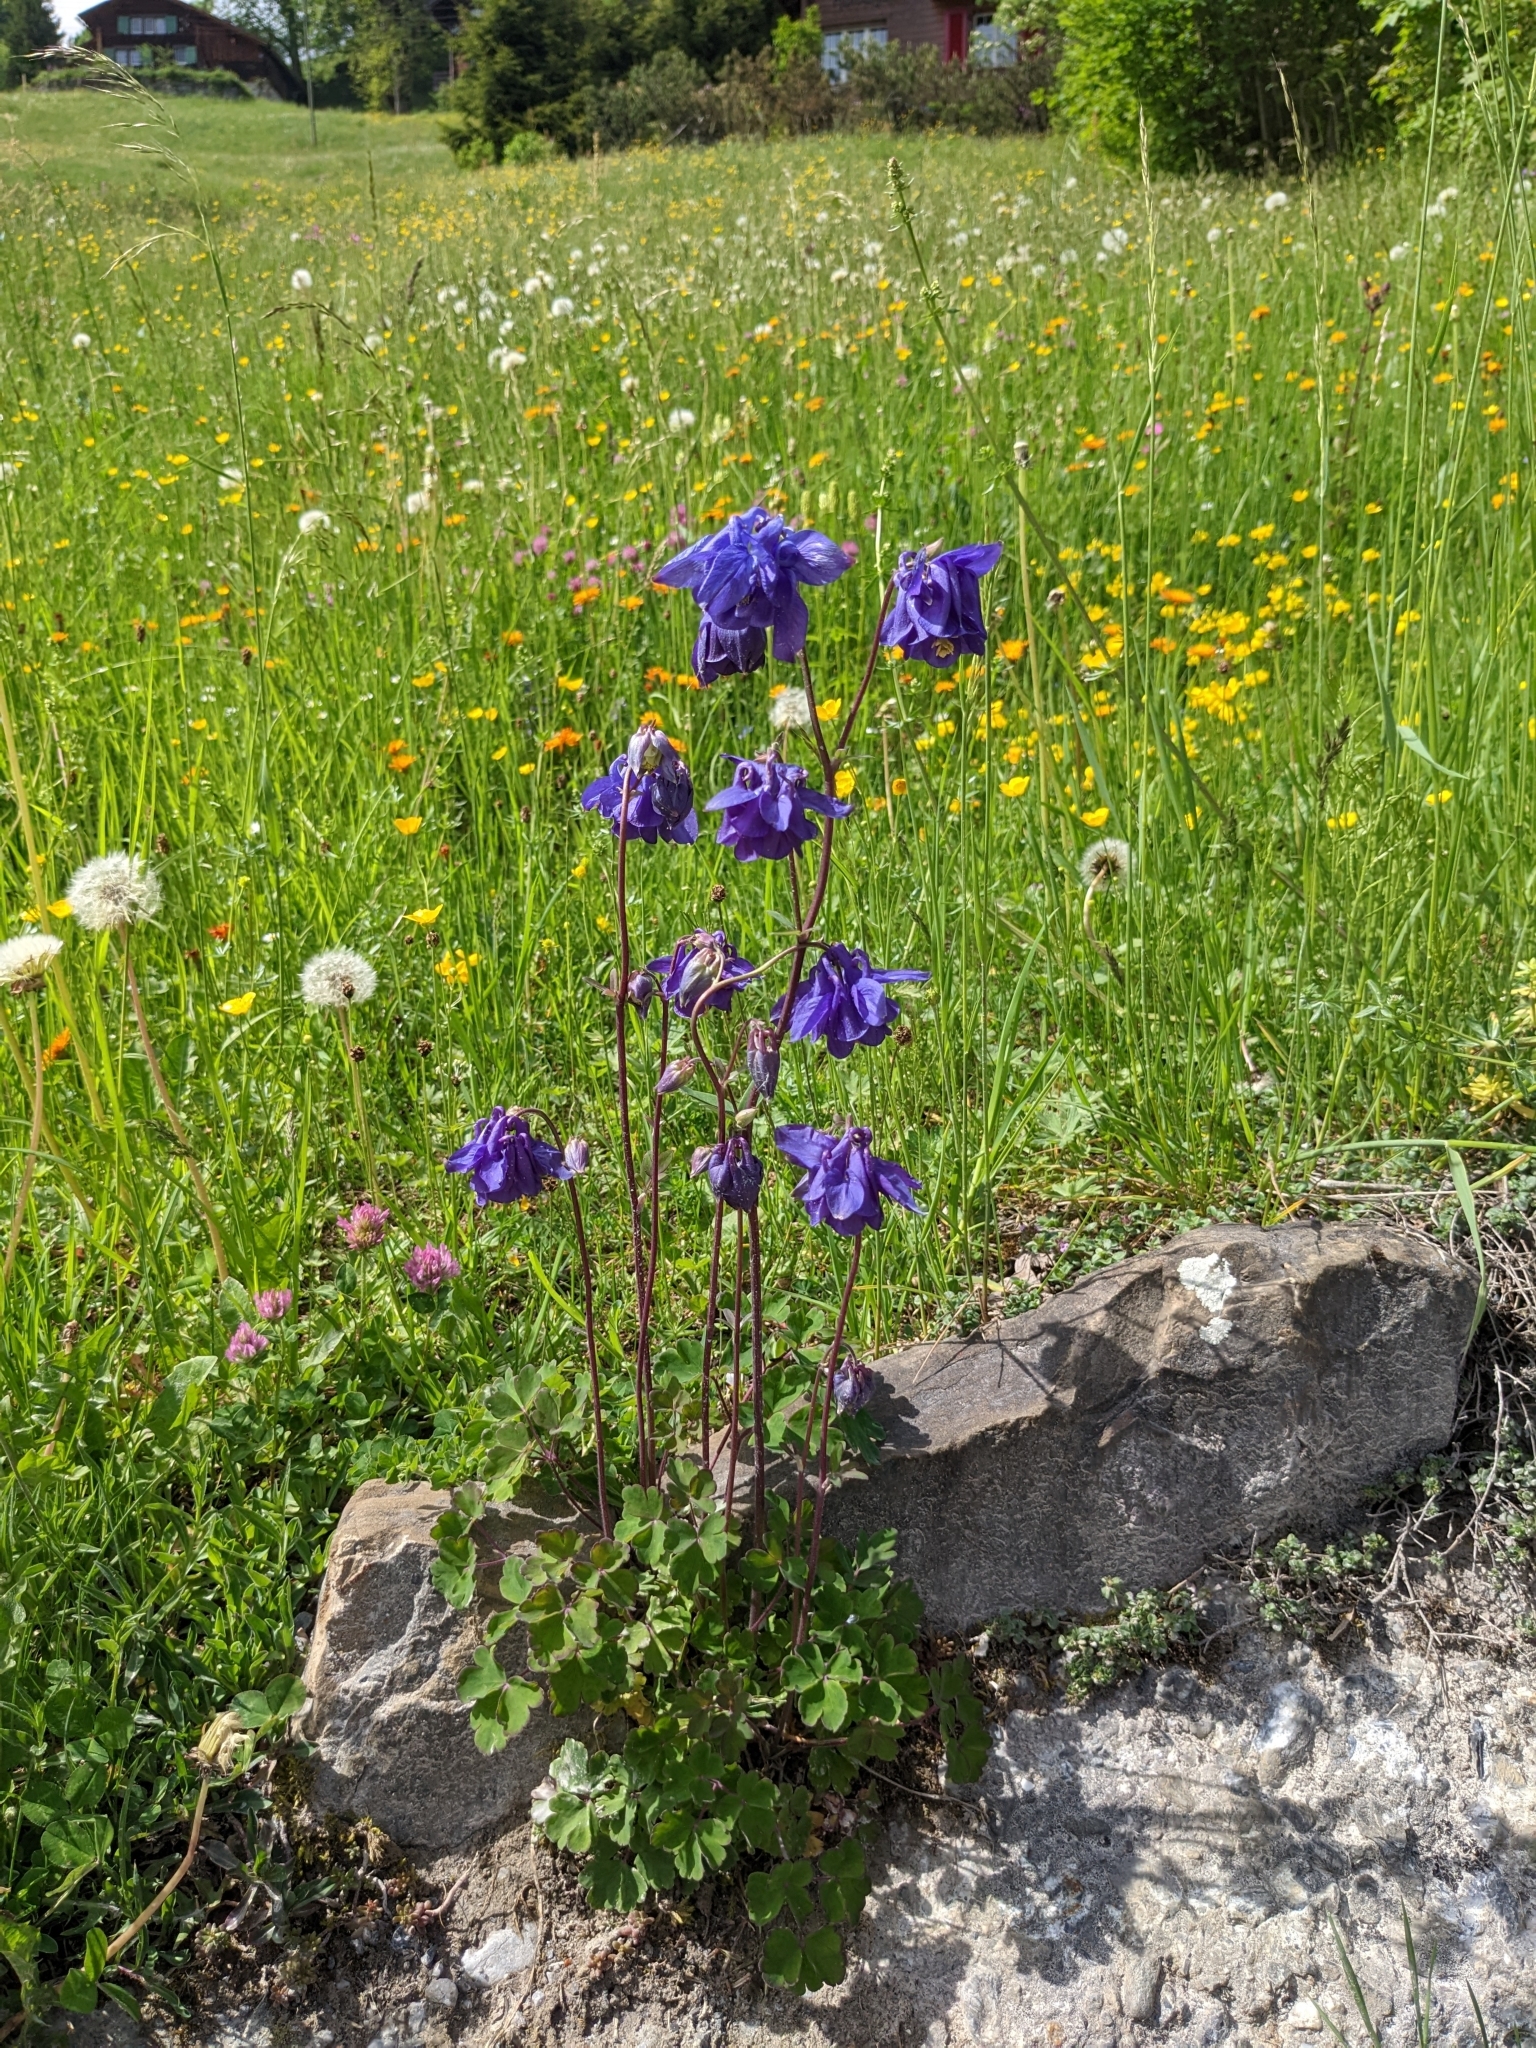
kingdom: Plantae
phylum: Tracheophyta
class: Magnoliopsida
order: Ranunculales
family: Ranunculaceae
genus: Aquilegia
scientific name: Aquilegia vulgaris
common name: Columbine
